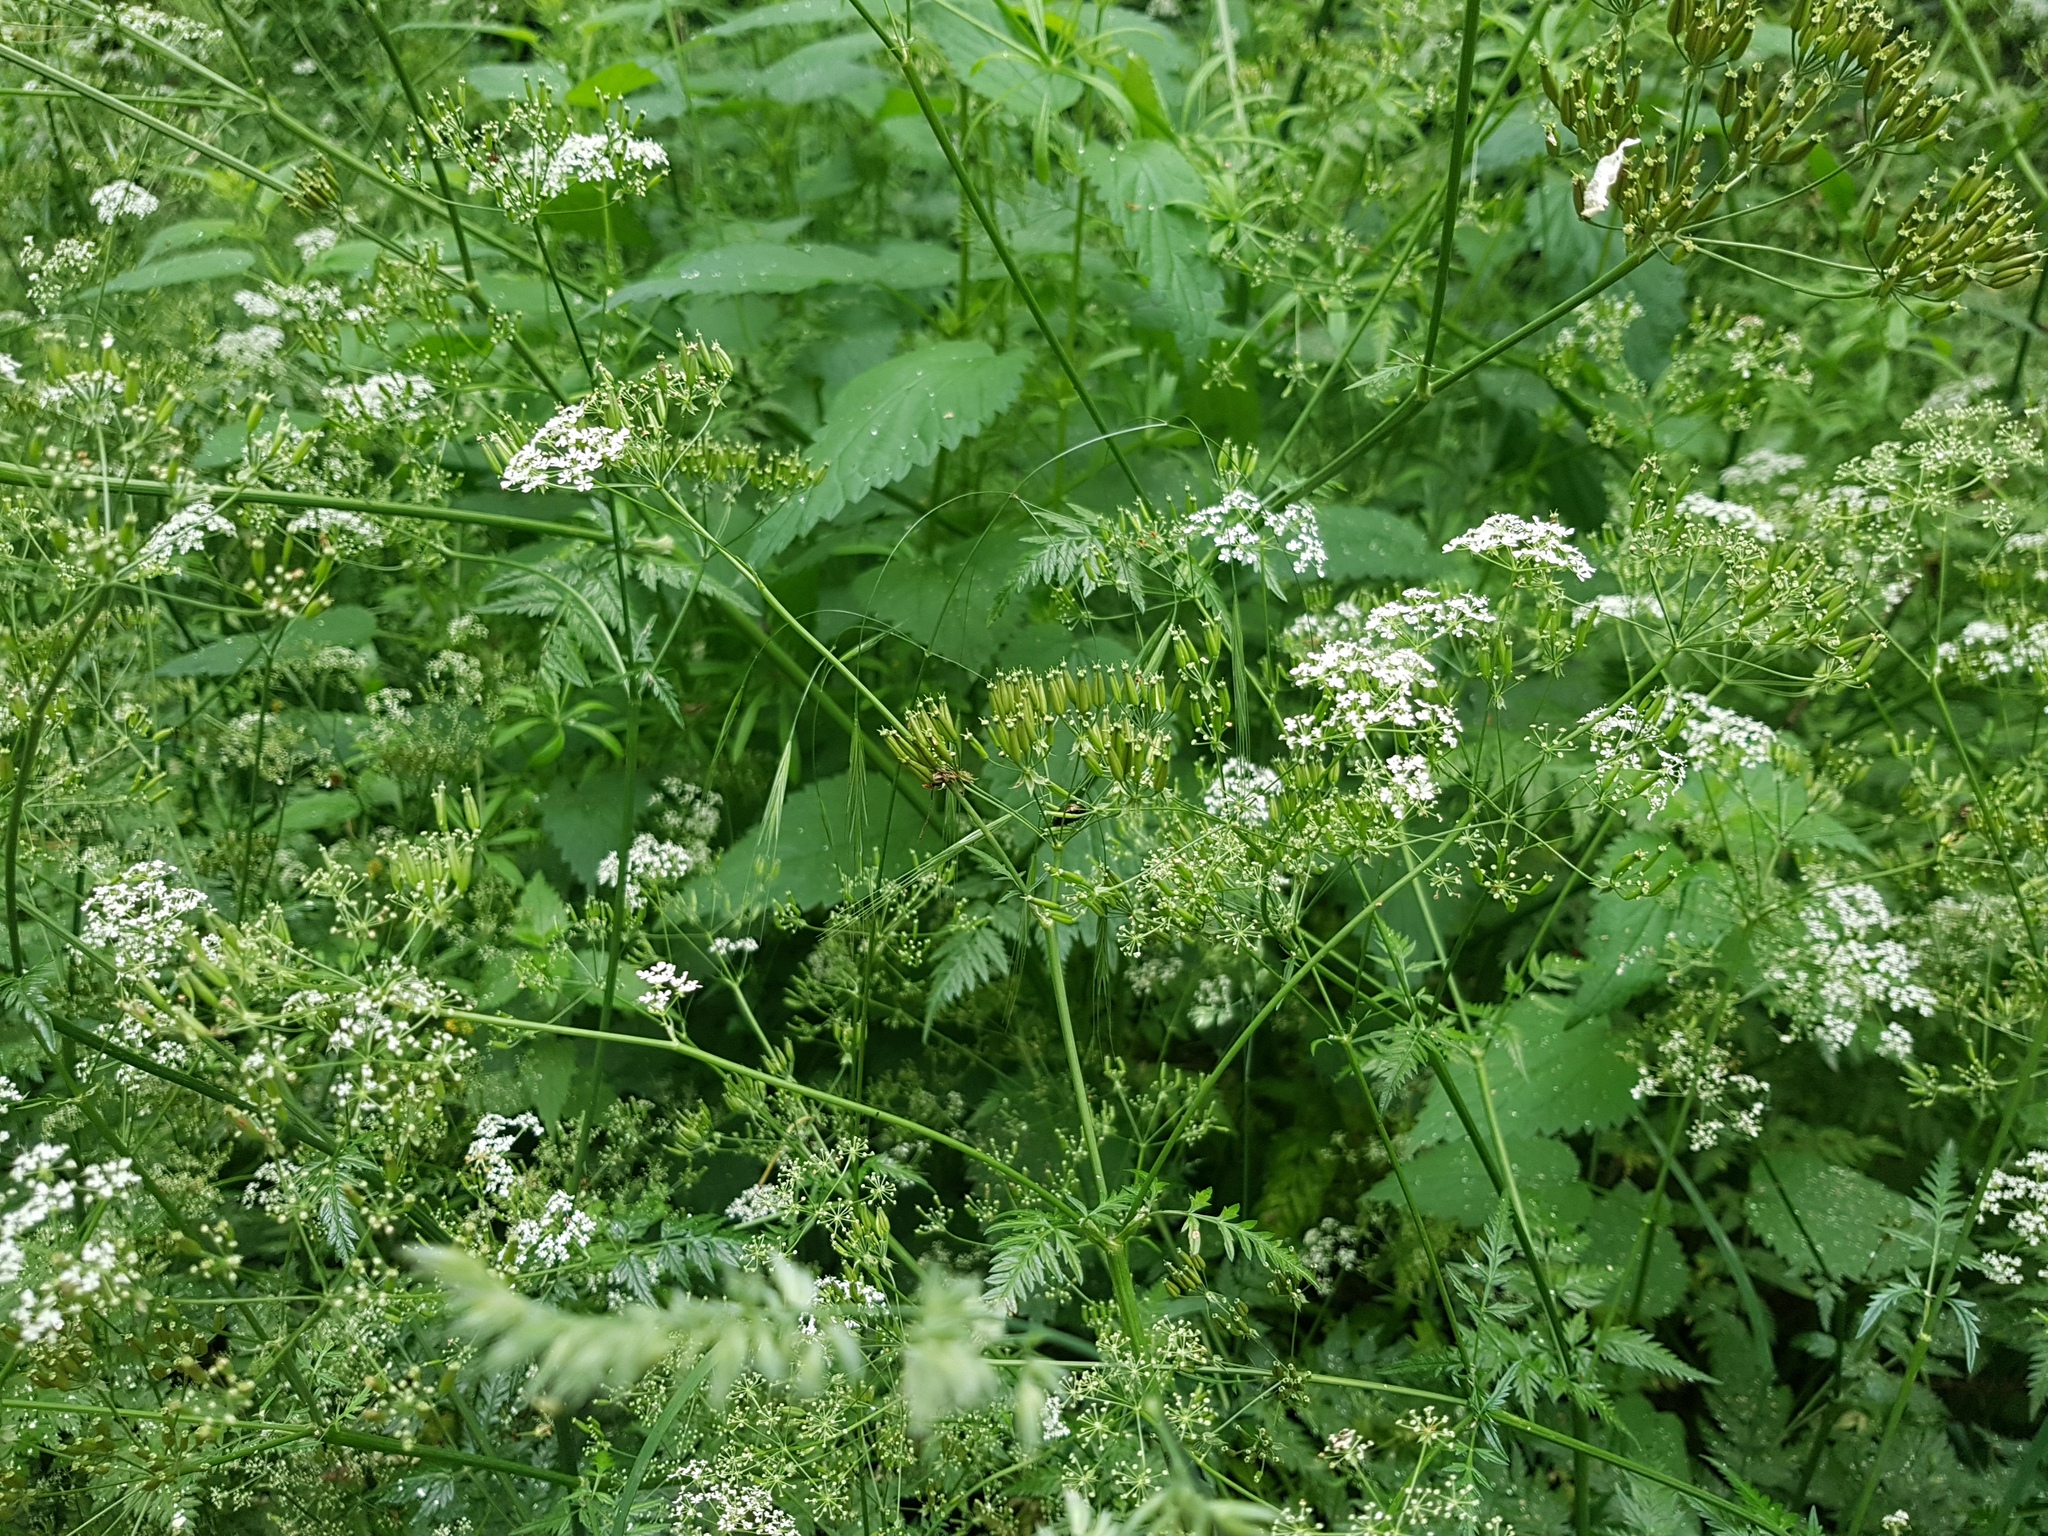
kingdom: Plantae
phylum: Tracheophyta
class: Magnoliopsida
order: Apiales
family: Apiaceae
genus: Anthriscus
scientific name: Anthriscus sylvestris
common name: Cow parsley
